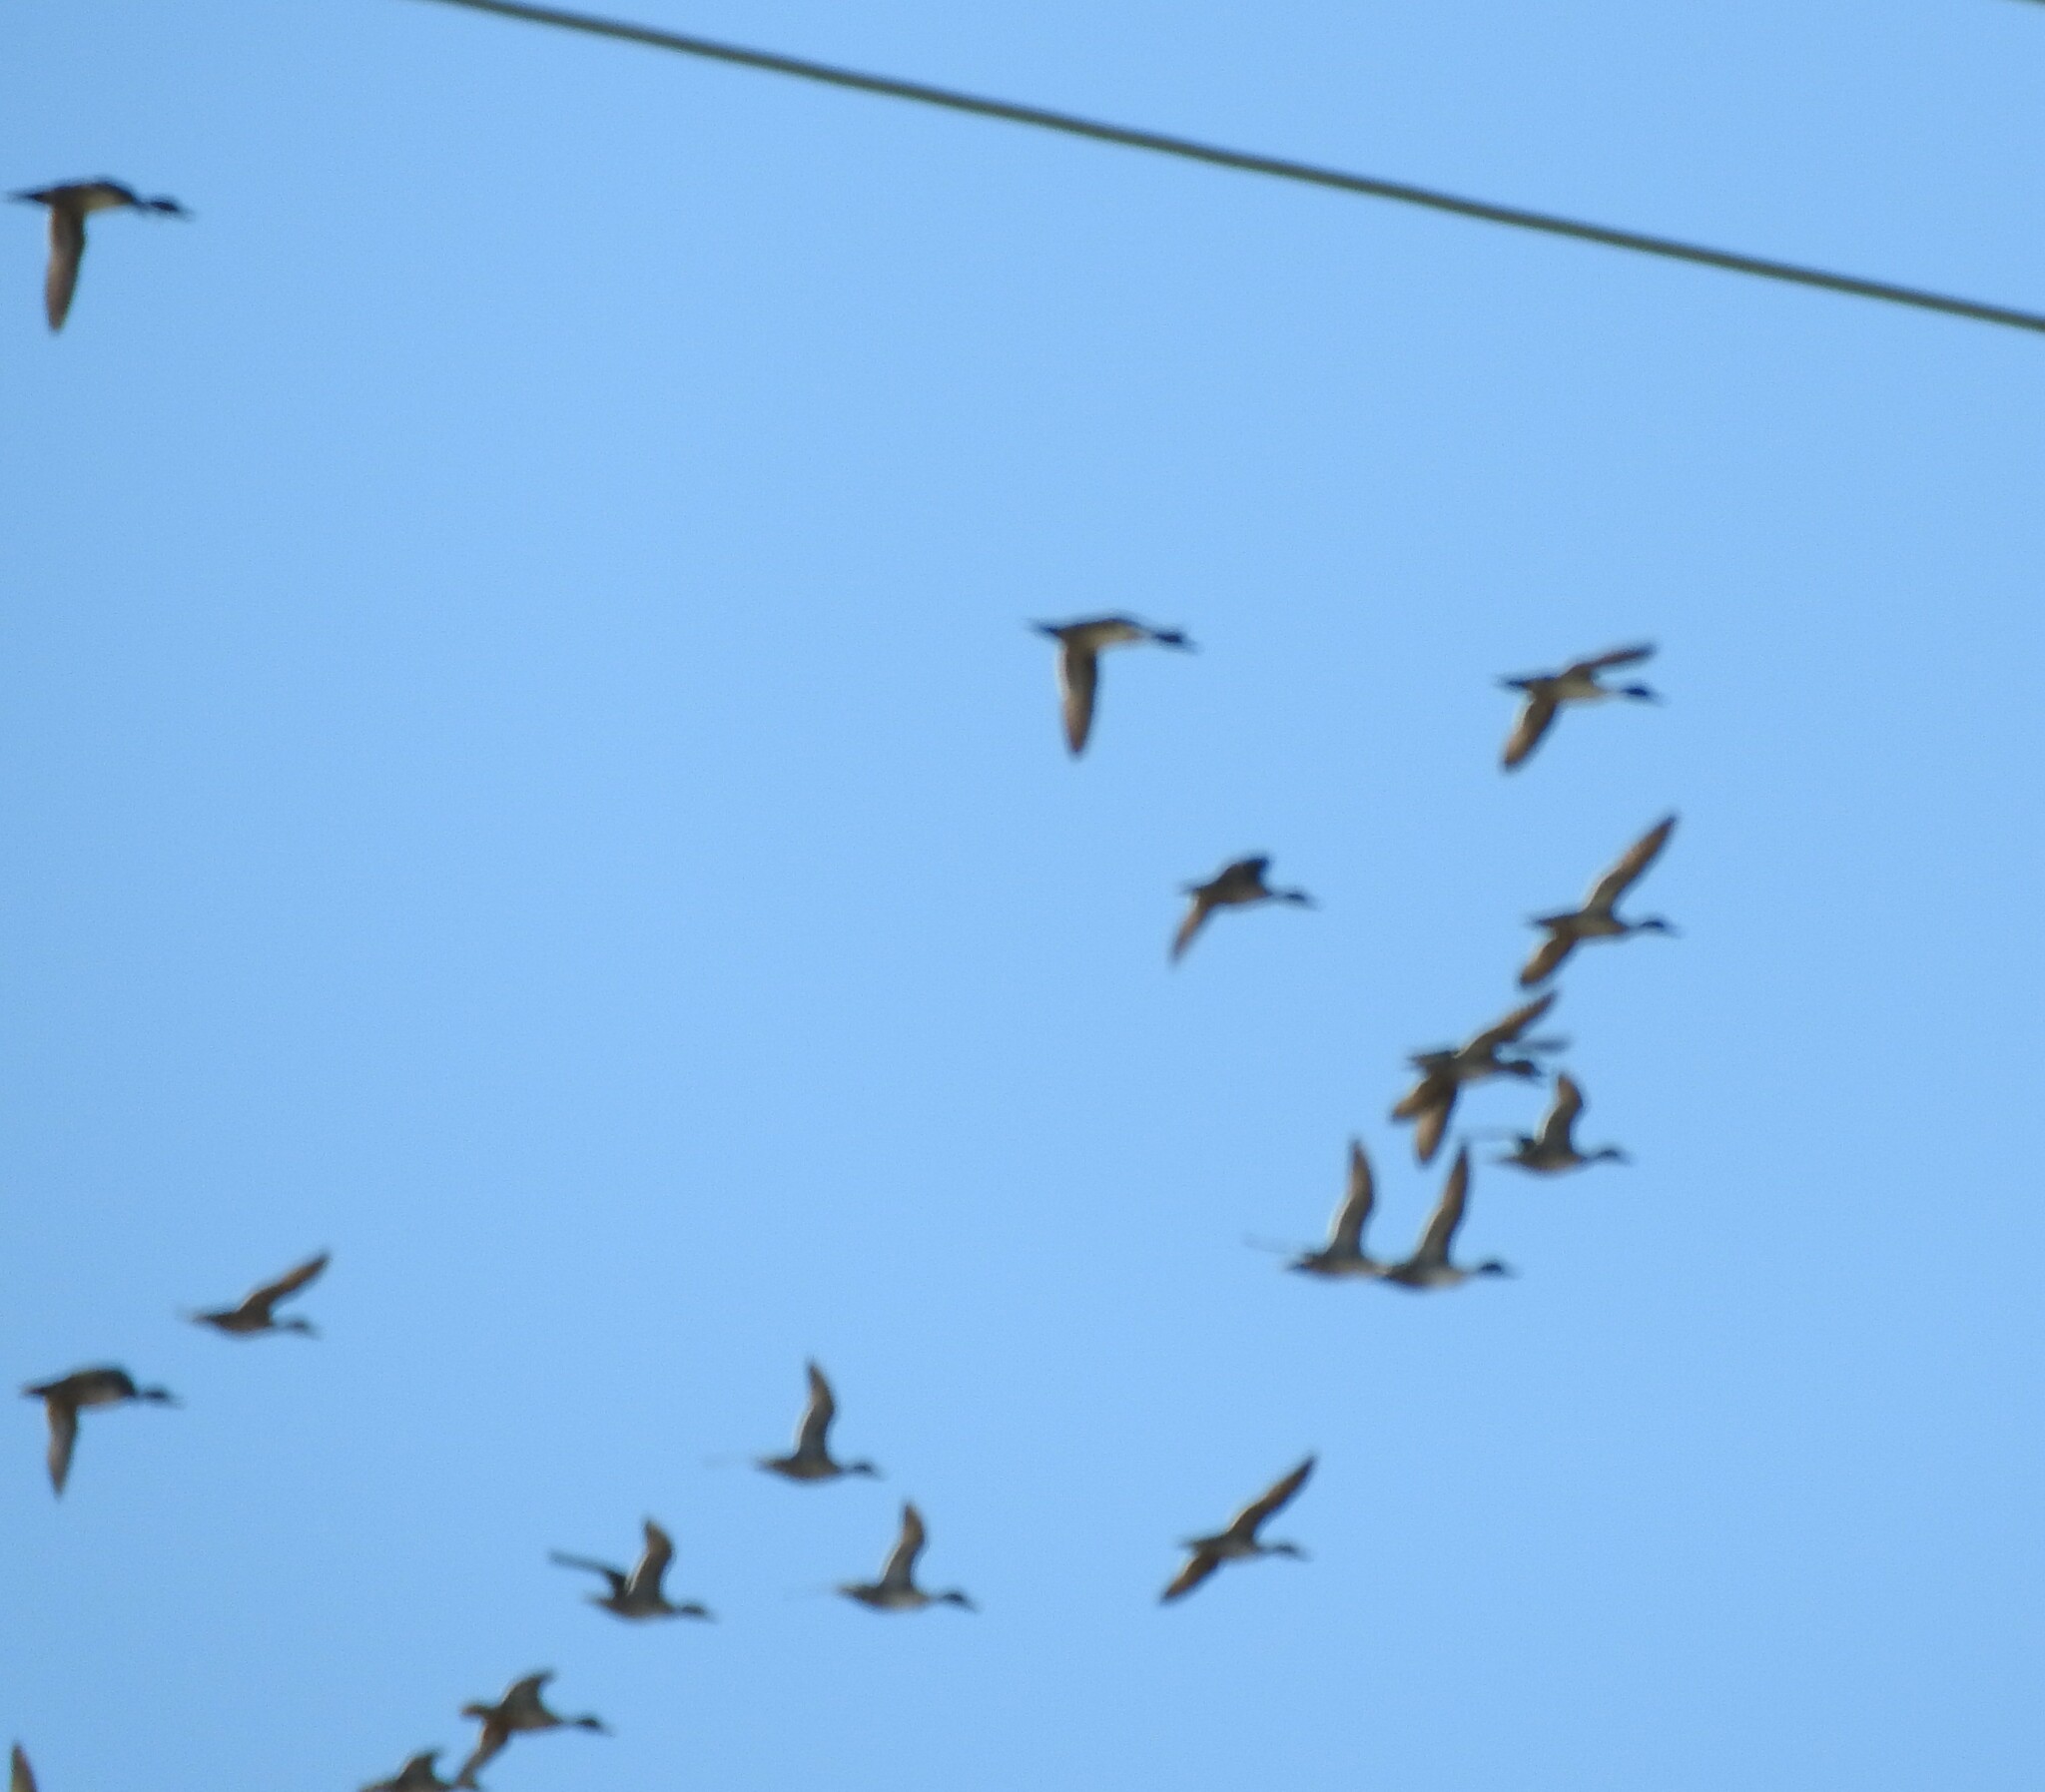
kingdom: Animalia
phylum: Chordata
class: Aves
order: Anseriformes
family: Anatidae
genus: Anas
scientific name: Anas acuta
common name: Northern pintail
